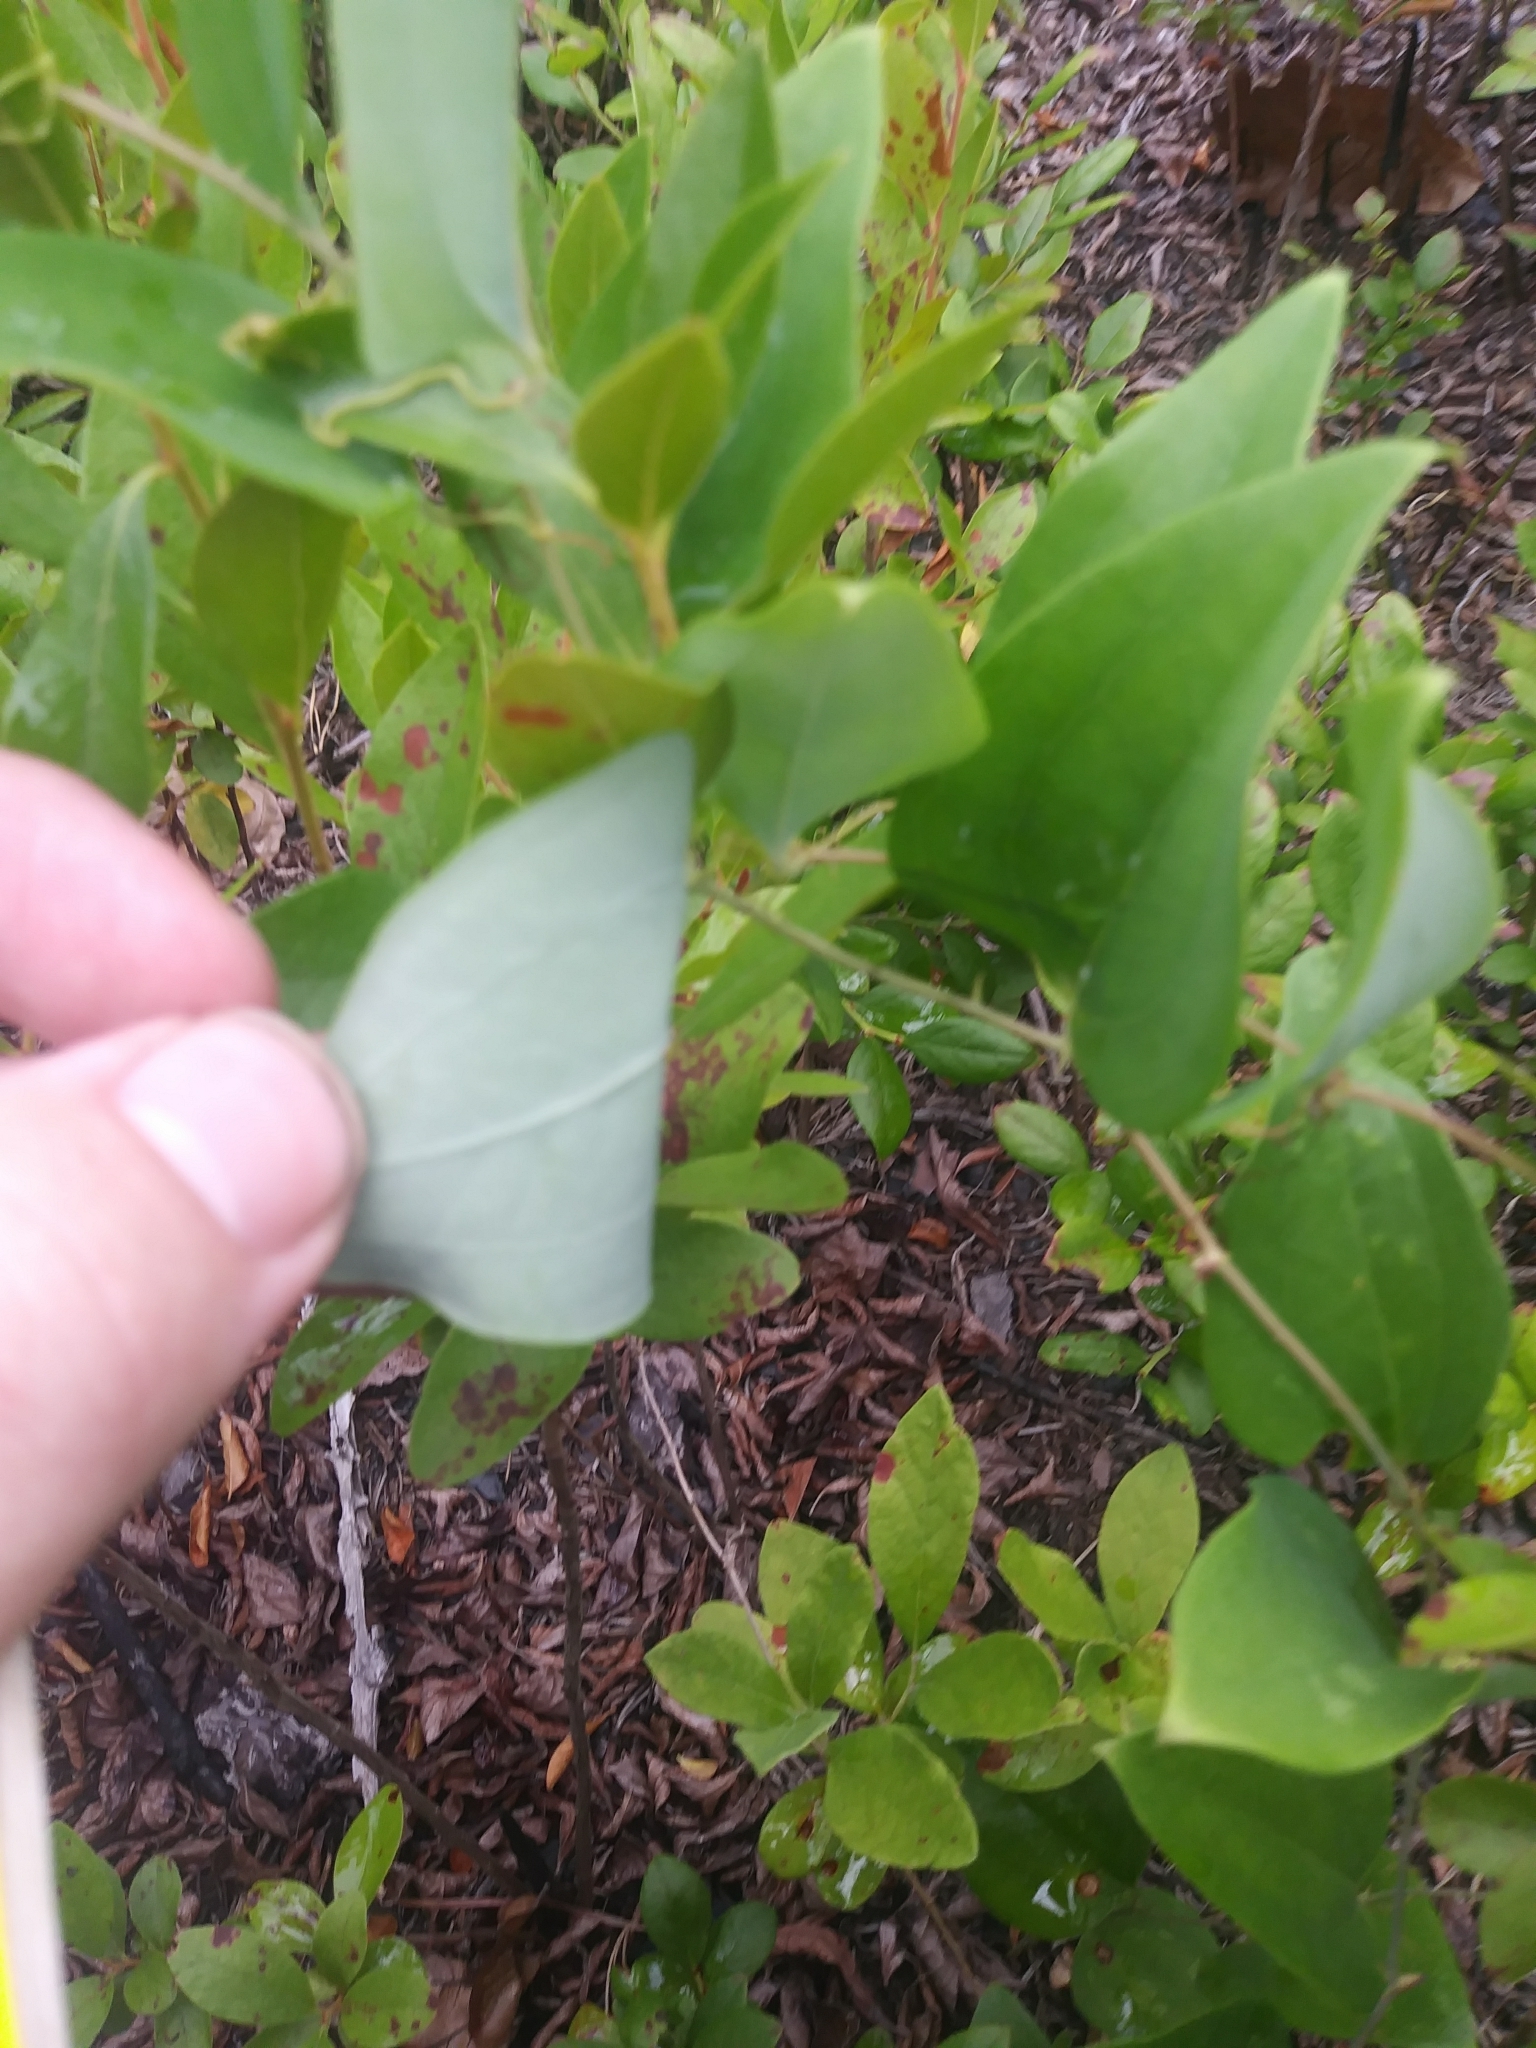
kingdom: Plantae
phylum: Tracheophyta
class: Liliopsida
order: Liliales
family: Smilacaceae
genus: Smilax
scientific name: Smilax glauca
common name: Cat greenbrier
